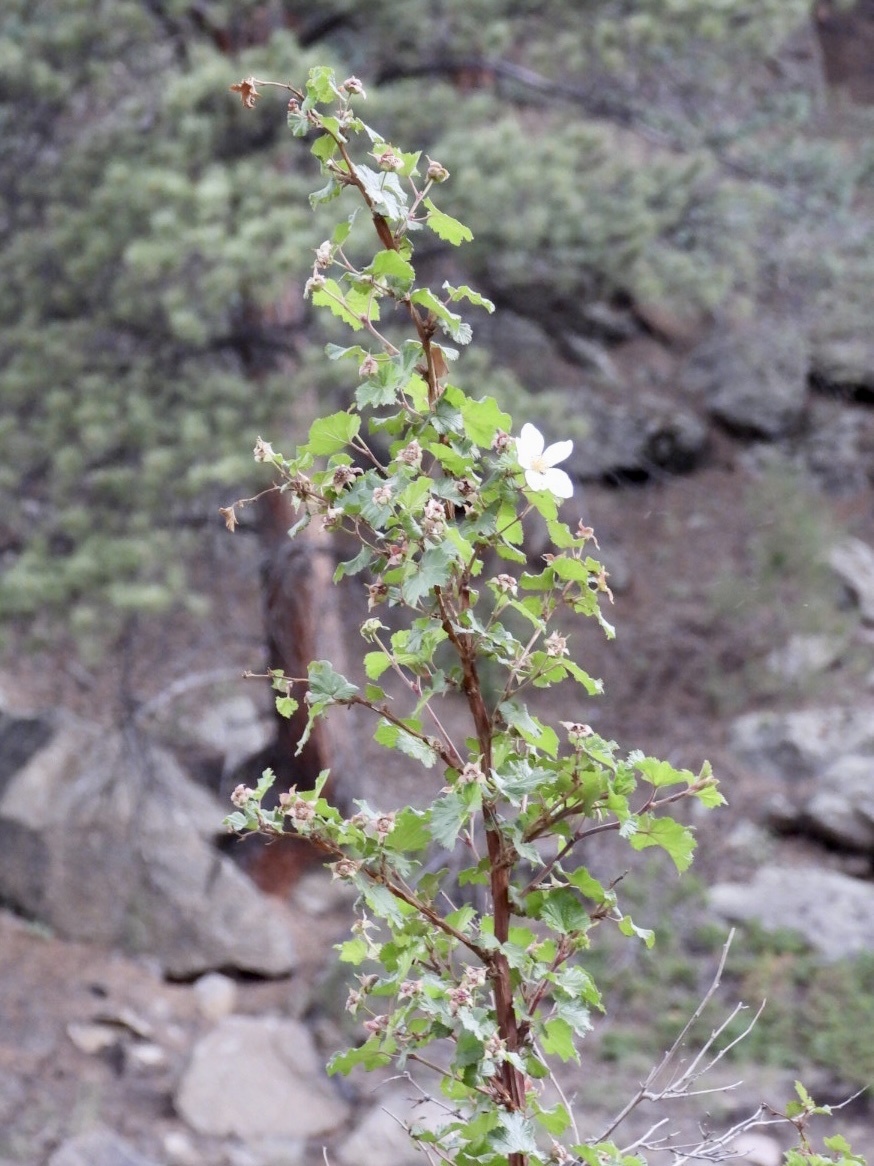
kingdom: Plantae
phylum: Tracheophyta
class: Magnoliopsida
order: Rosales
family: Rosaceae
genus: Rubus
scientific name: Rubus deliciosus
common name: Rocky mountain raspberry
